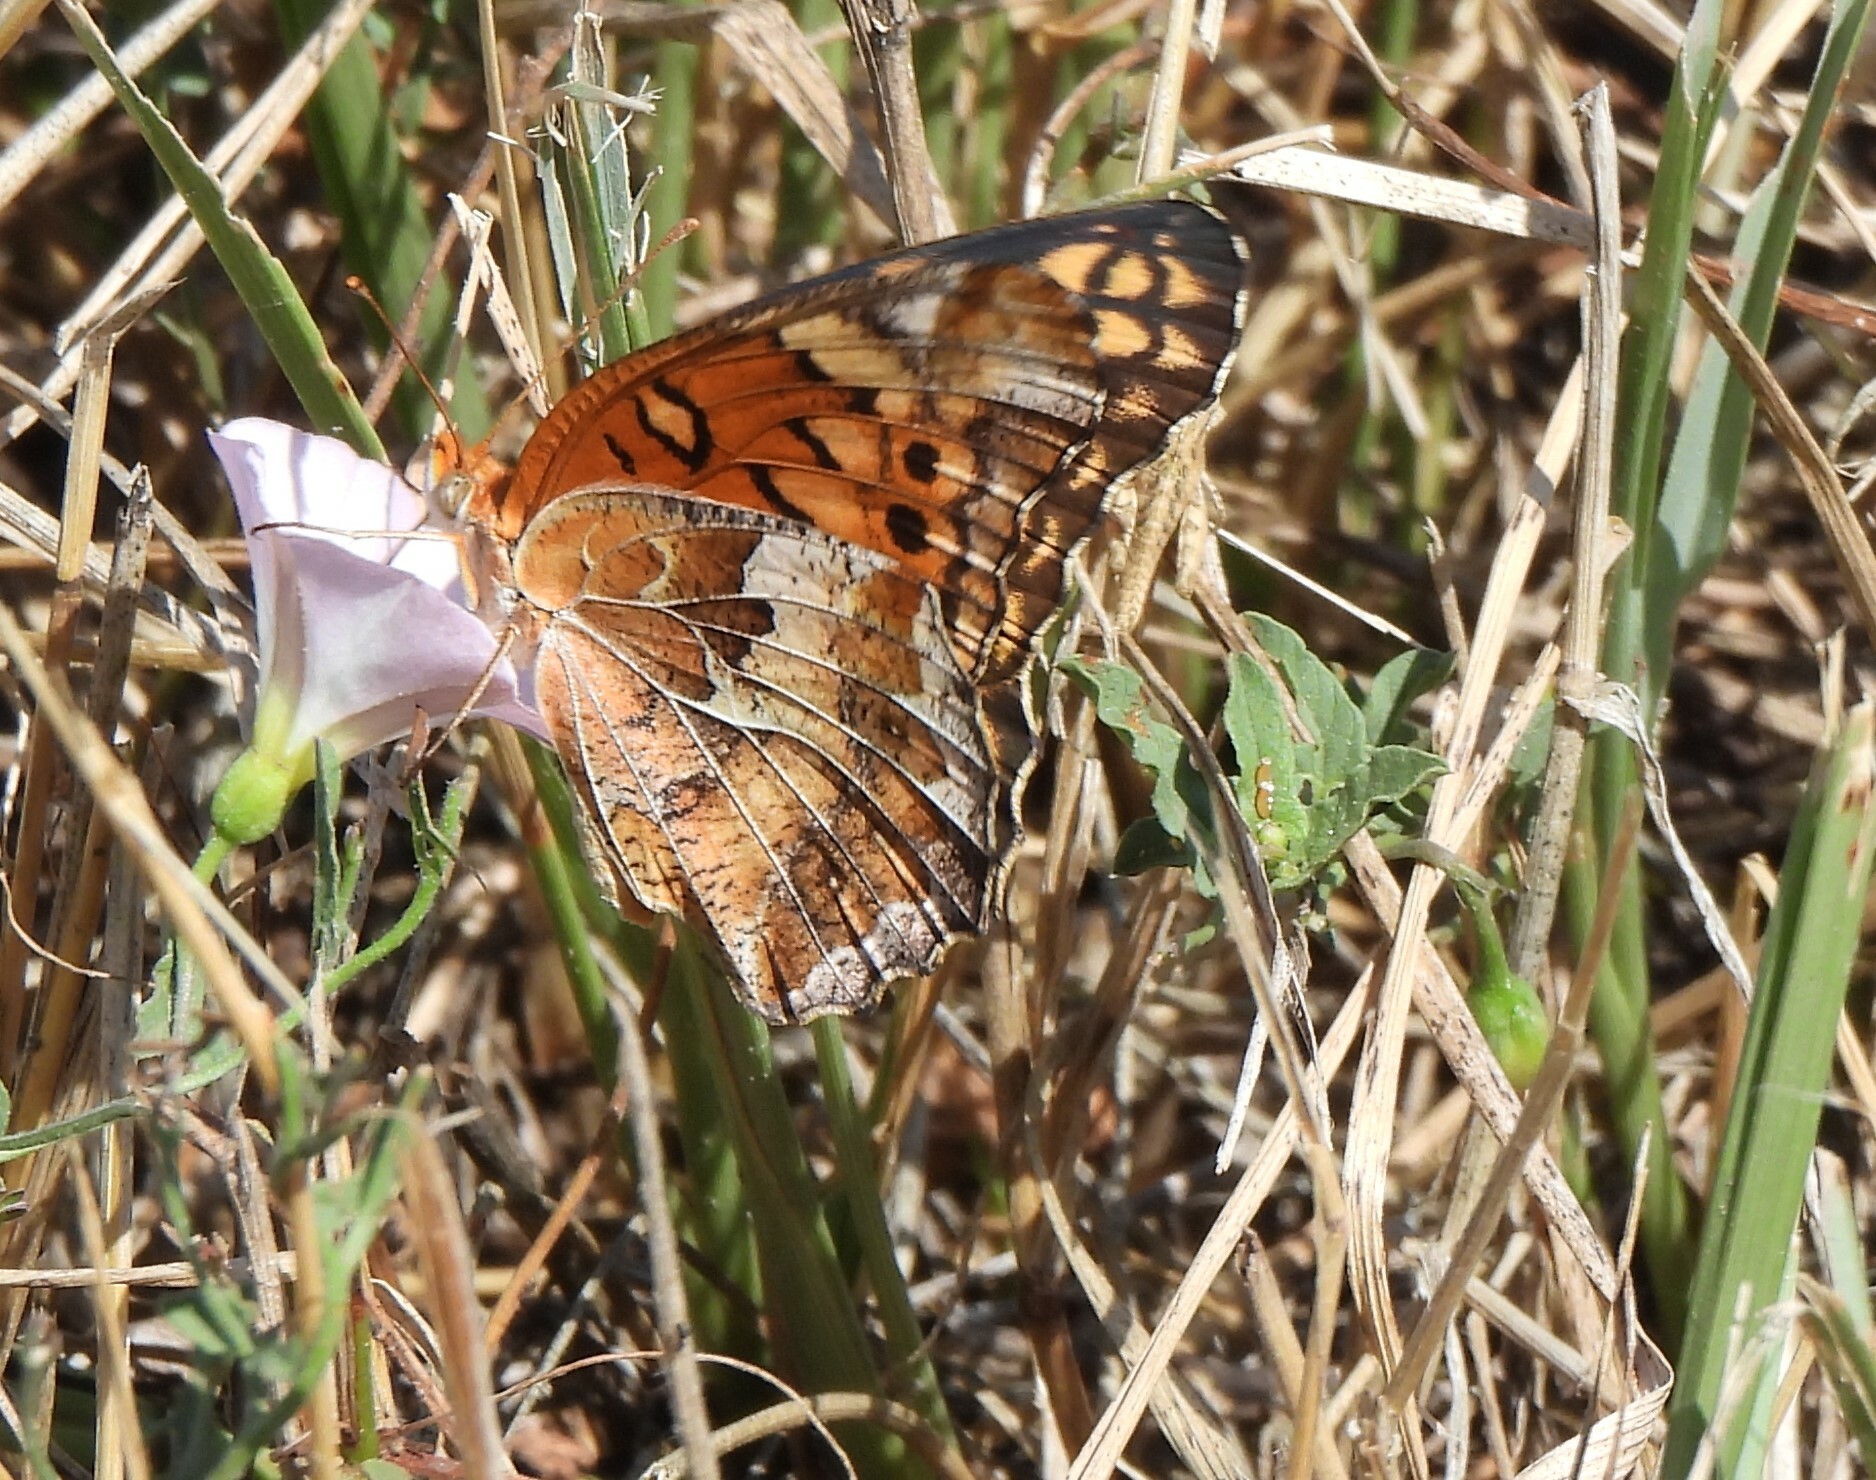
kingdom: Animalia
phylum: Arthropoda
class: Insecta
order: Lepidoptera
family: Nymphalidae
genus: Euptoieta
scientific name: Euptoieta claudia
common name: Variegated fritillary
